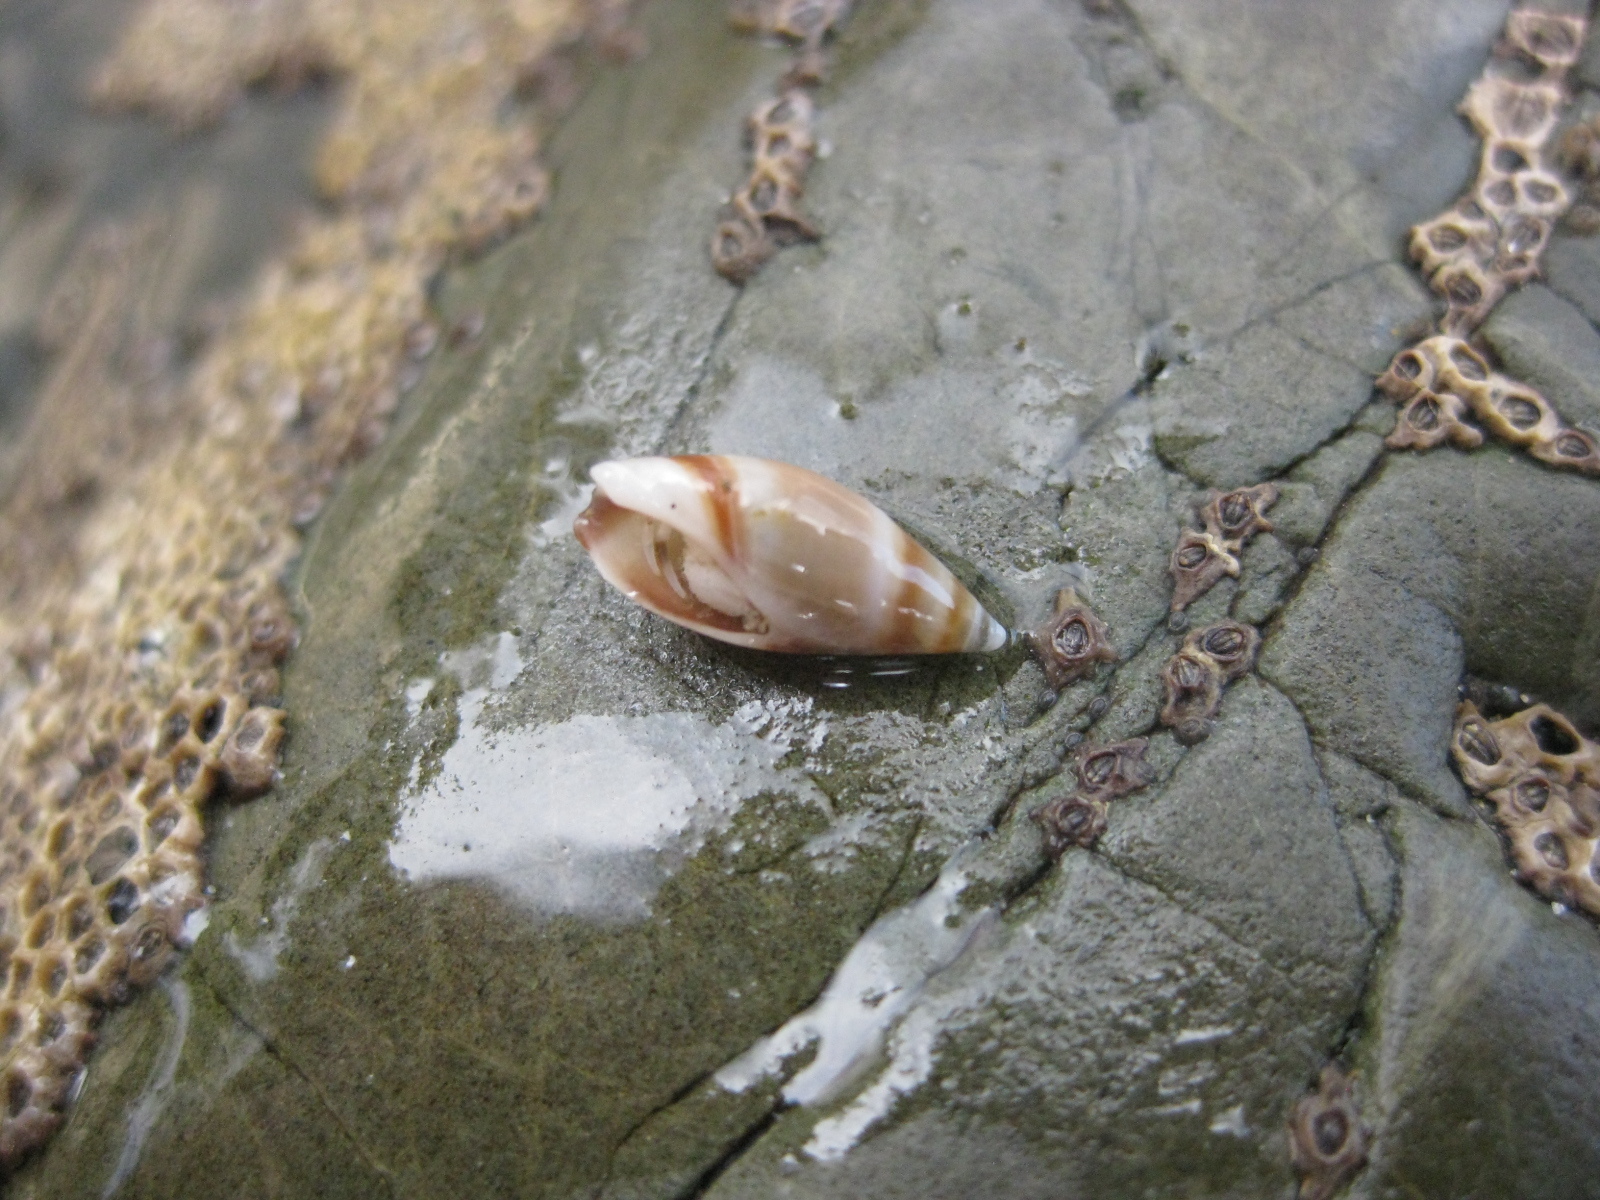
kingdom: Animalia
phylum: Mollusca
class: Gastropoda
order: Neogastropoda
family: Ancillariidae
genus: Amalda
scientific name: Amalda novaezelandiae
